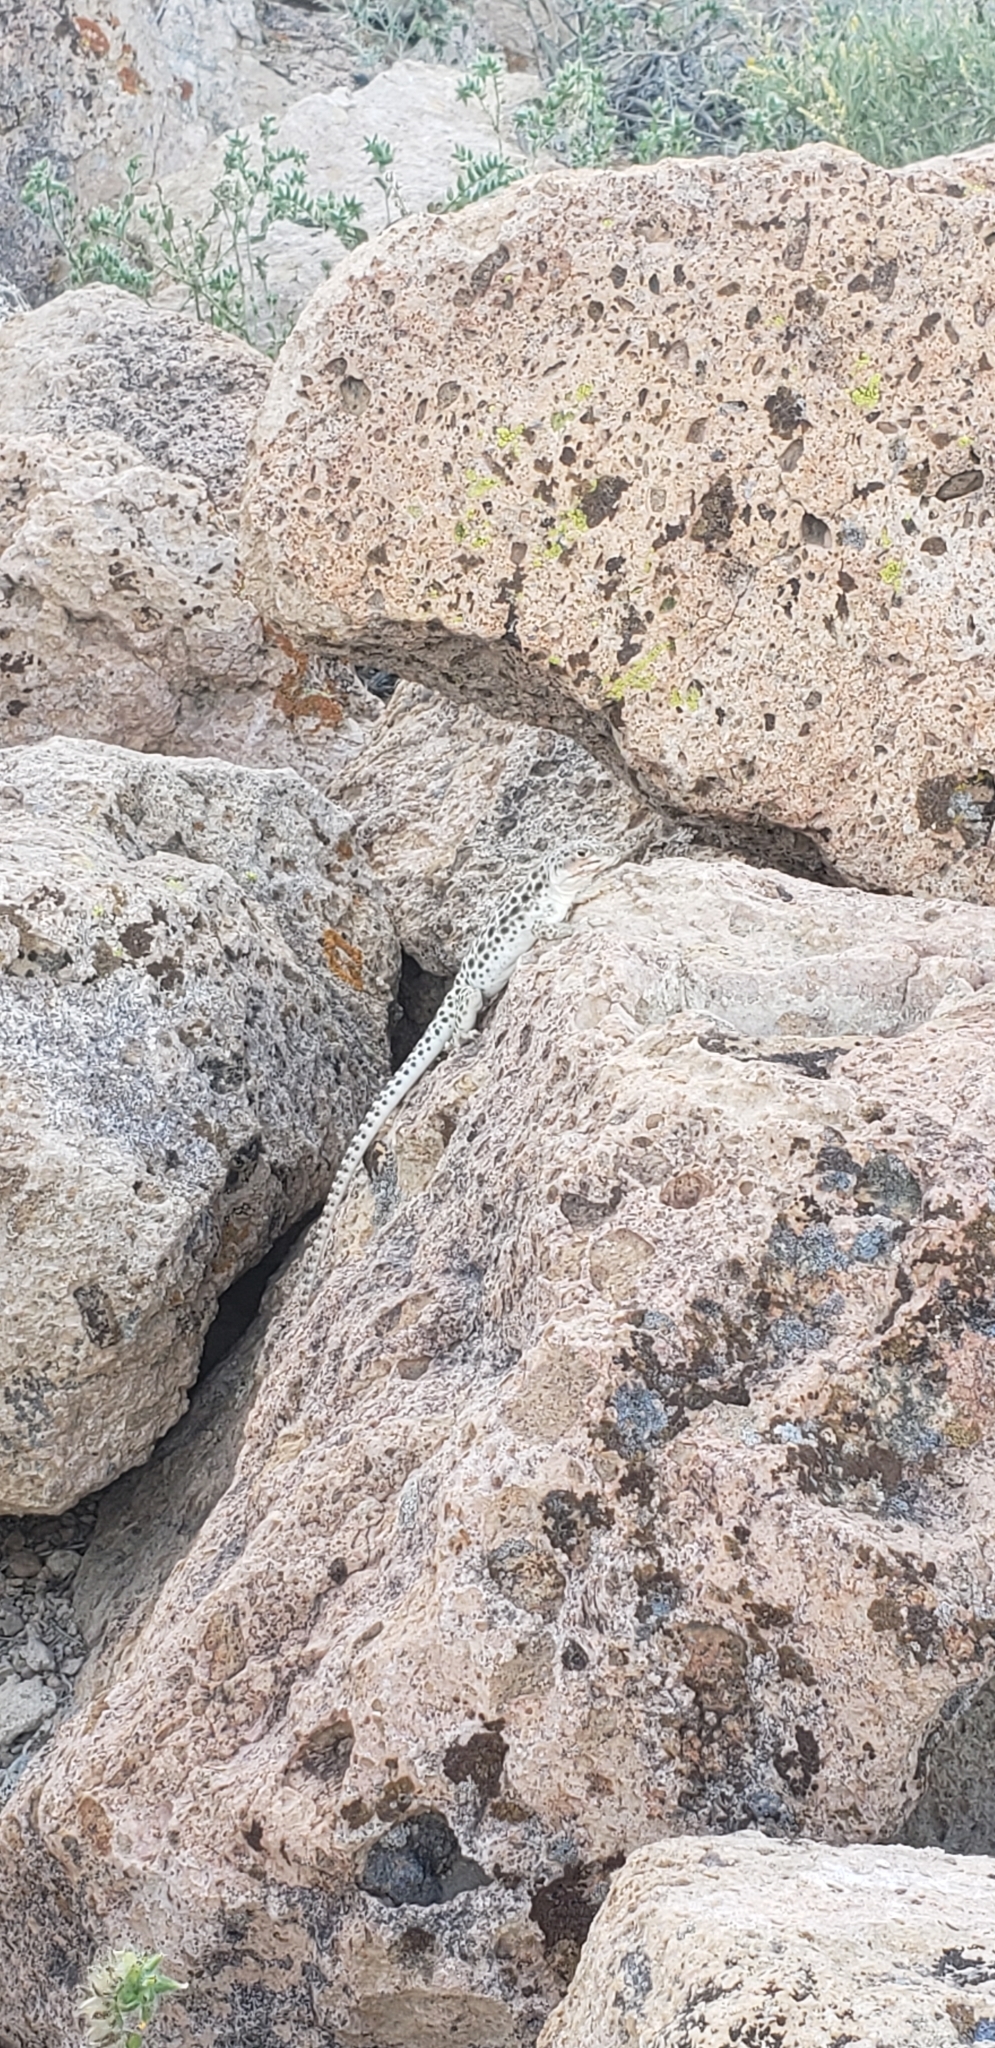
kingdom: Animalia
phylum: Chordata
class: Squamata
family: Crotaphytidae
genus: Gambelia
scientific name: Gambelia wislizenii
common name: Longnose leopard lizard
